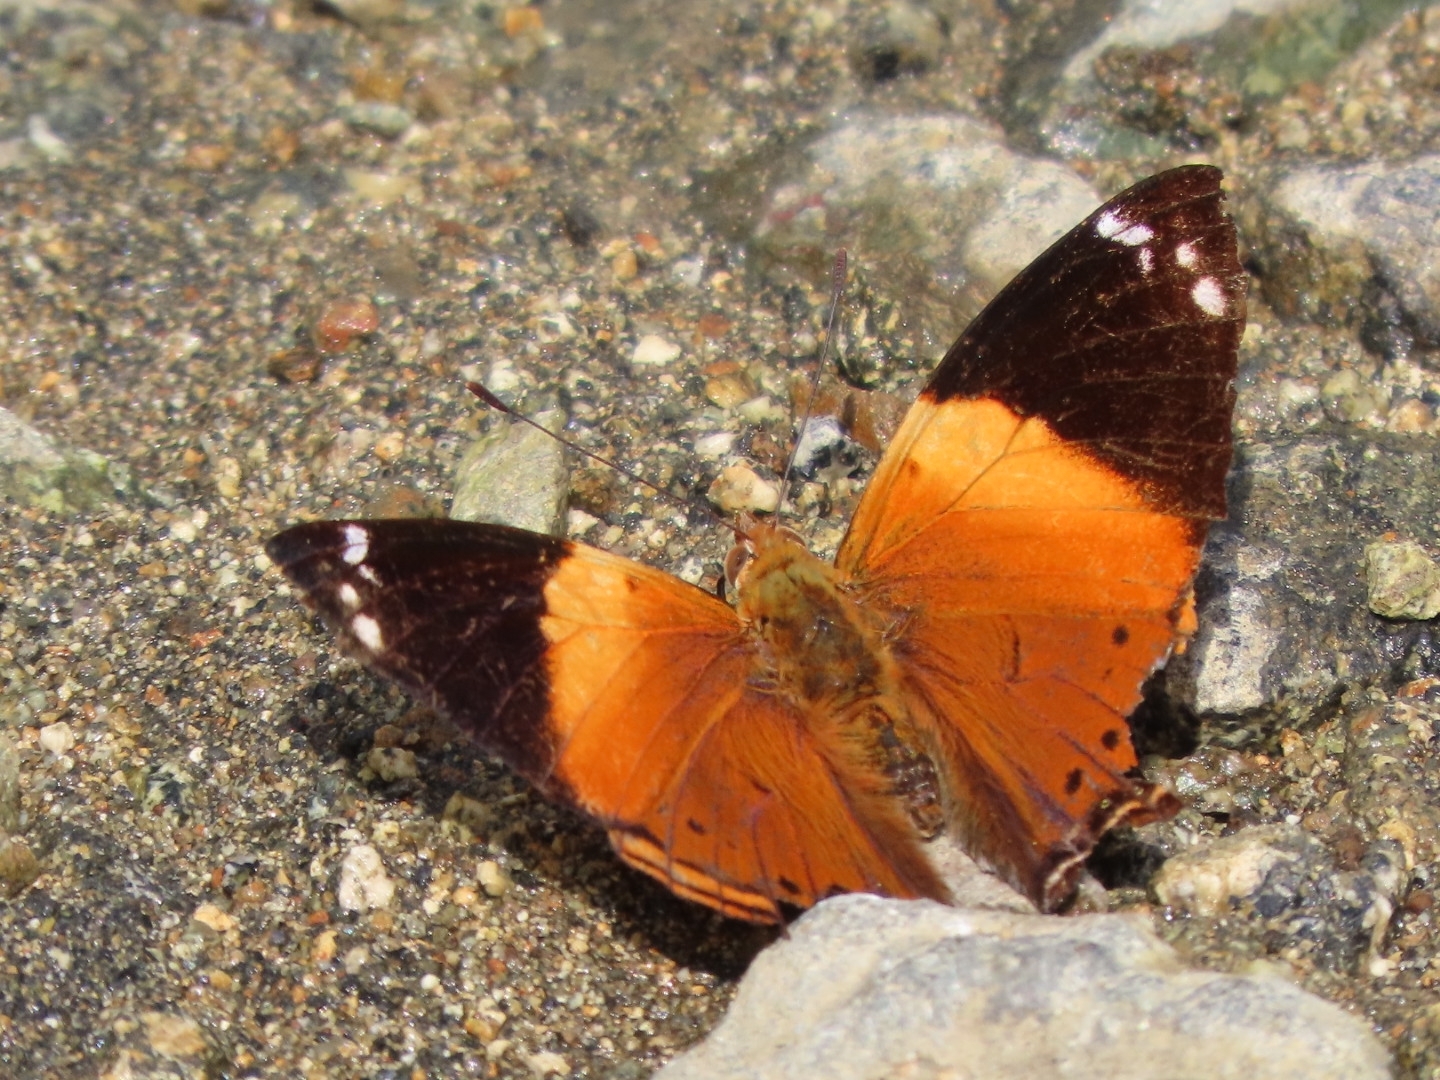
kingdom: Animalia
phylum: Arthropoda
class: Insecta
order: Lepidoptera
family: Nymphalidae
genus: Hypanartia
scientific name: Hypanartia godmanii
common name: Godman's mapwing
